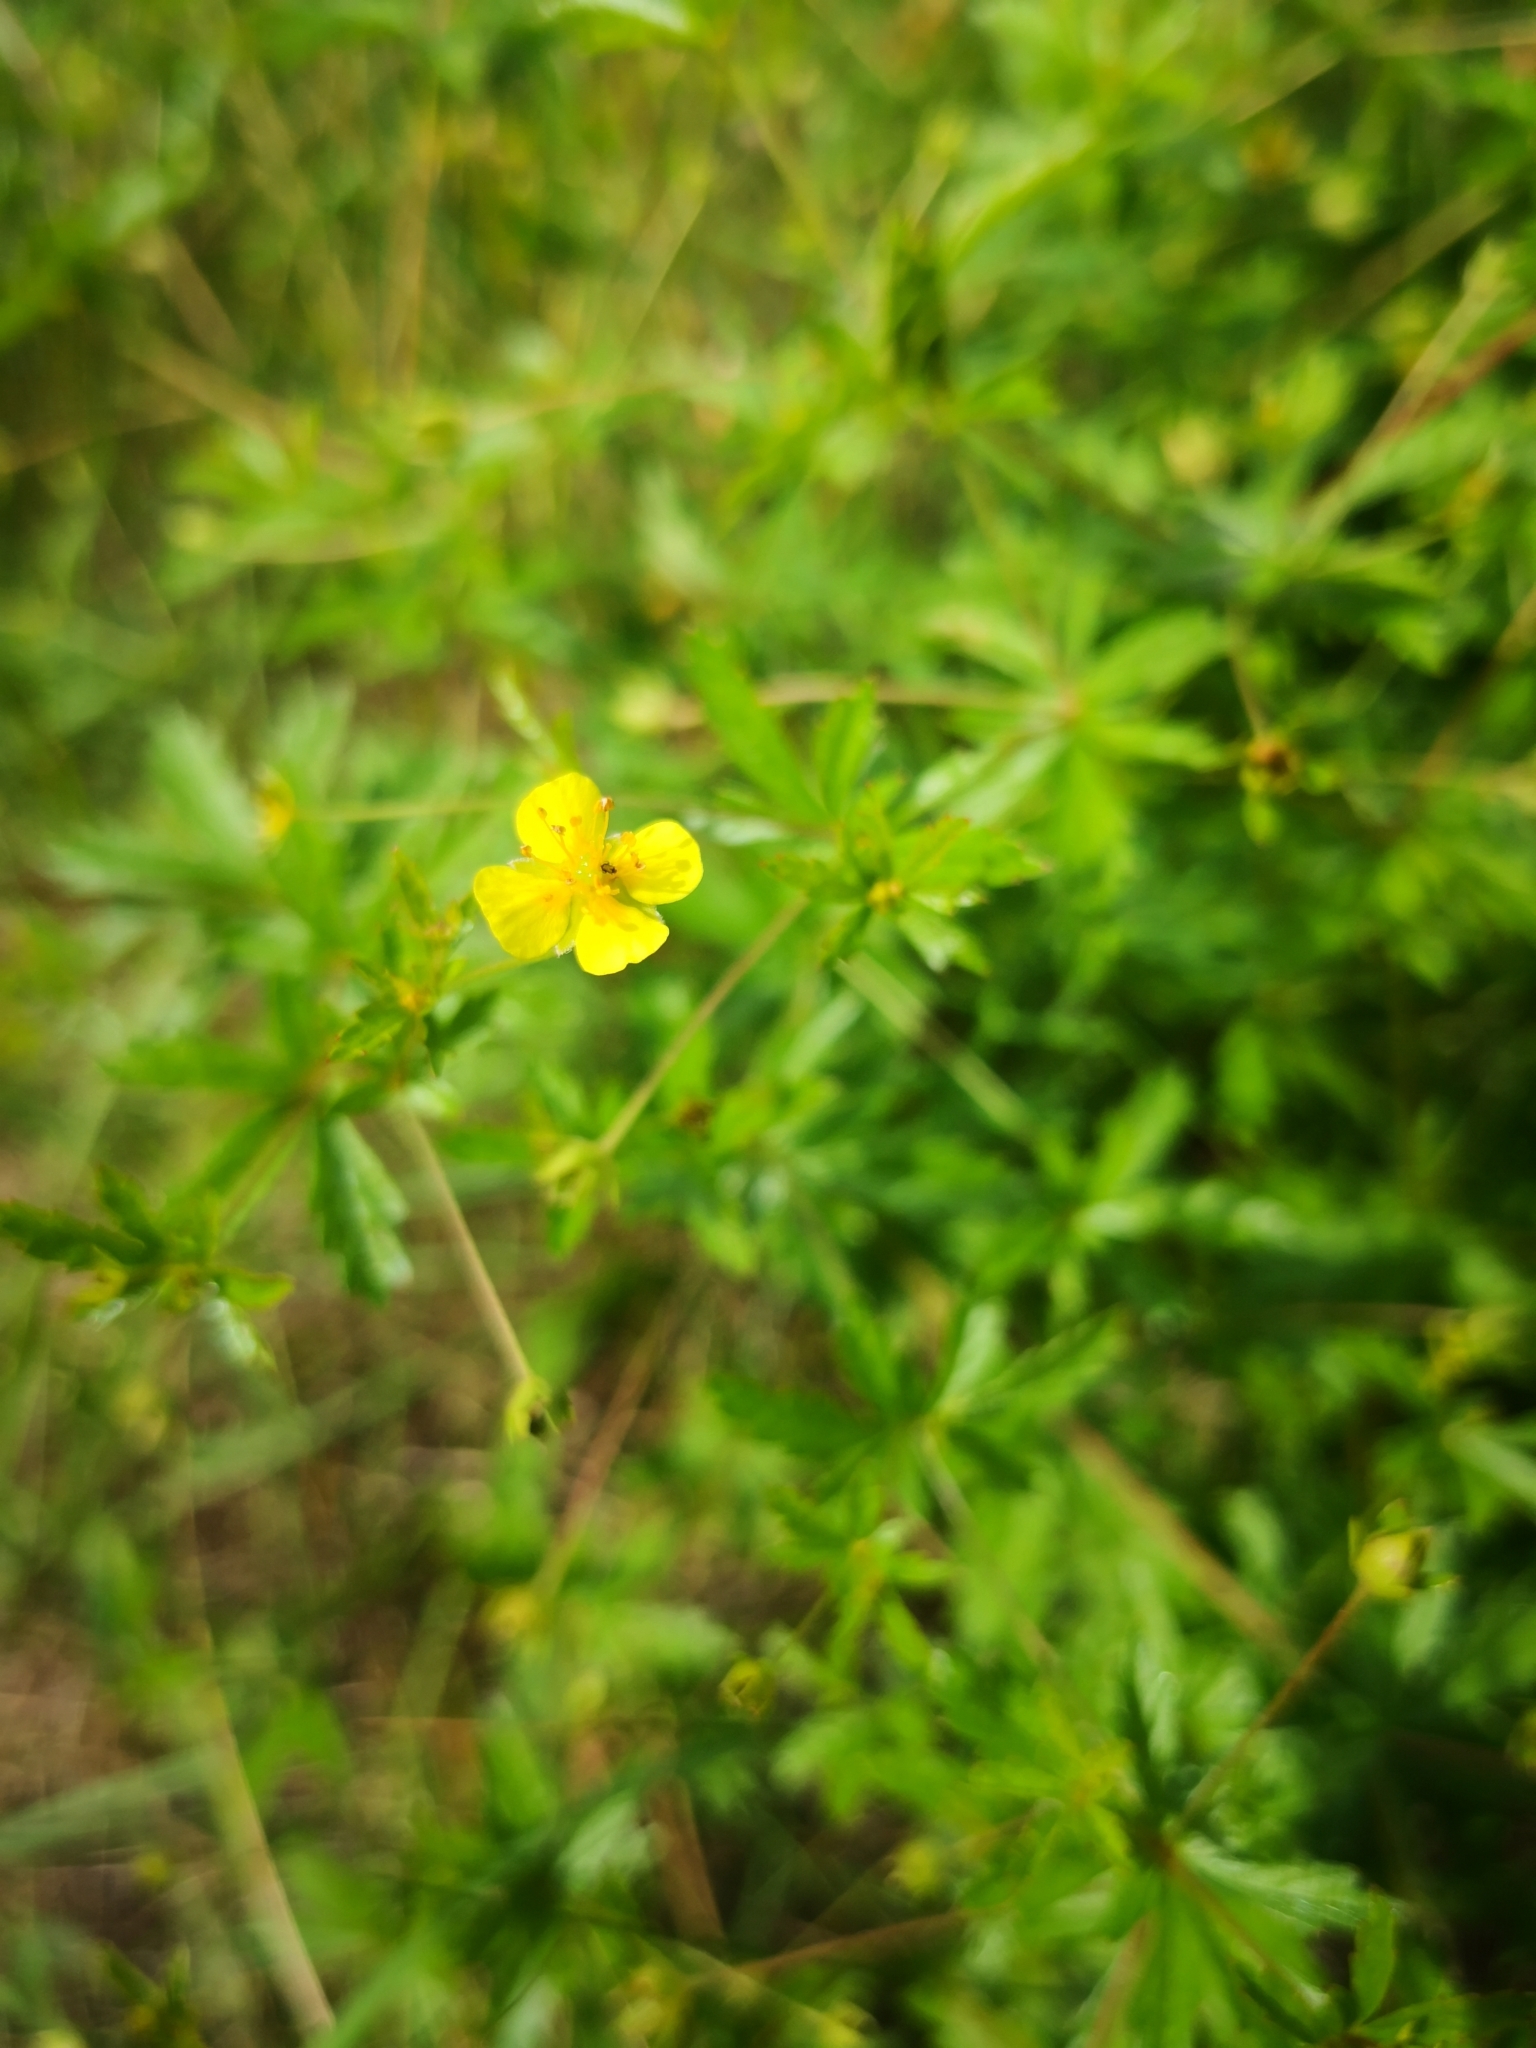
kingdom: Plantae
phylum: Tracheophyta
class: Magnoliopsida
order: Rosales
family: Rosaceae
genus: Potentilla
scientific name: Potentilla erecta
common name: Tormentil
